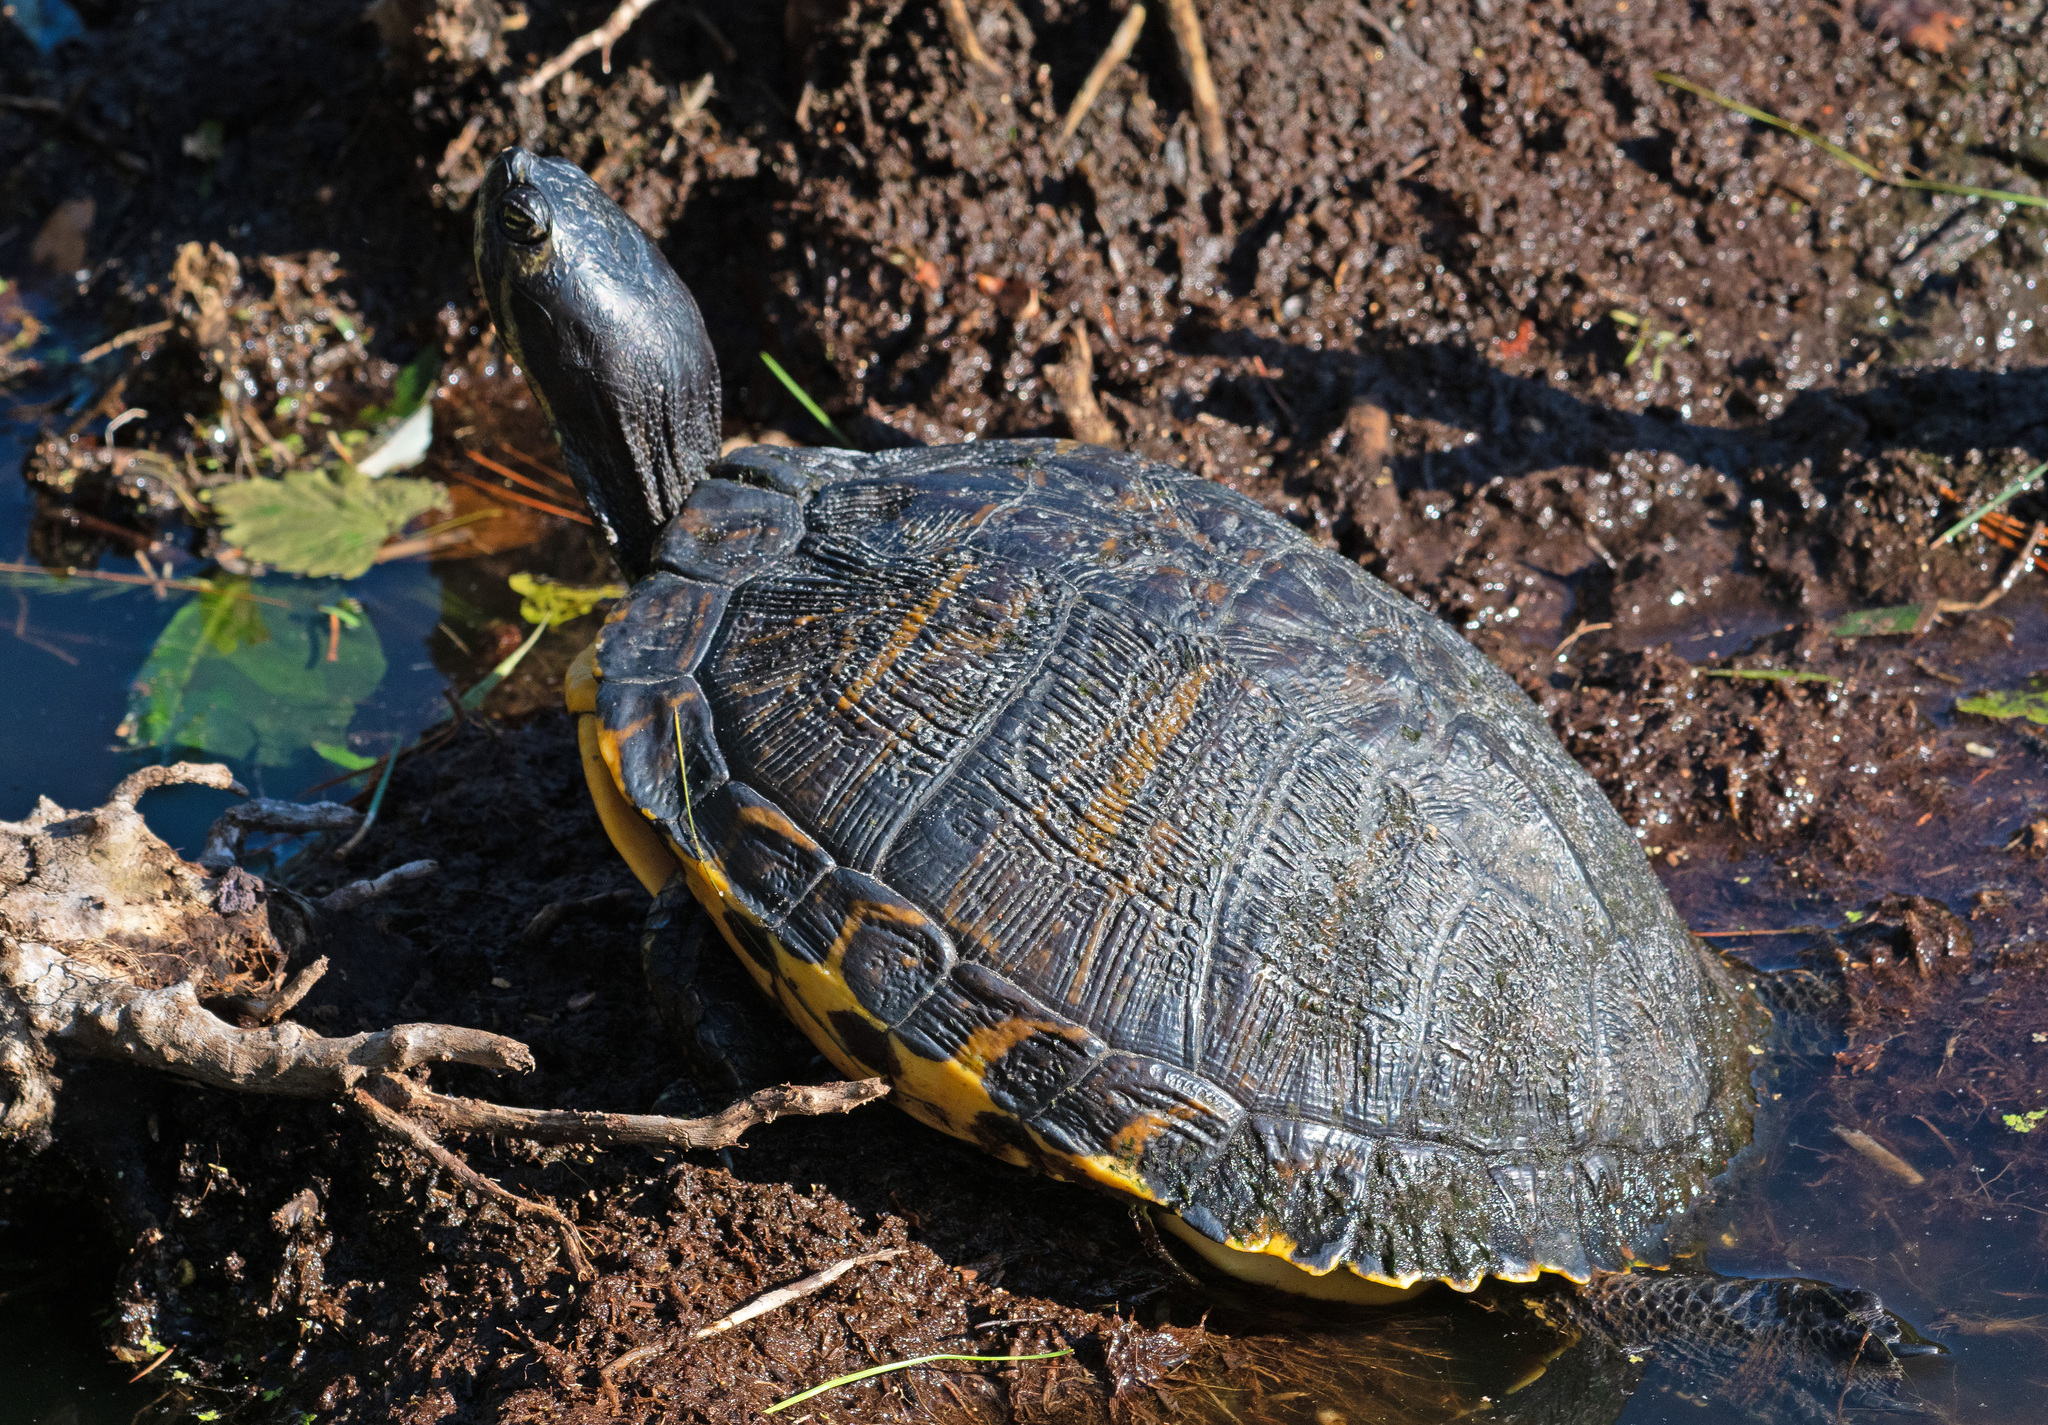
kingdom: Animalia
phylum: Chordata
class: Testudines
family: Emydidae
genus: Trachemys
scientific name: Trachemys scripta
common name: Slider
